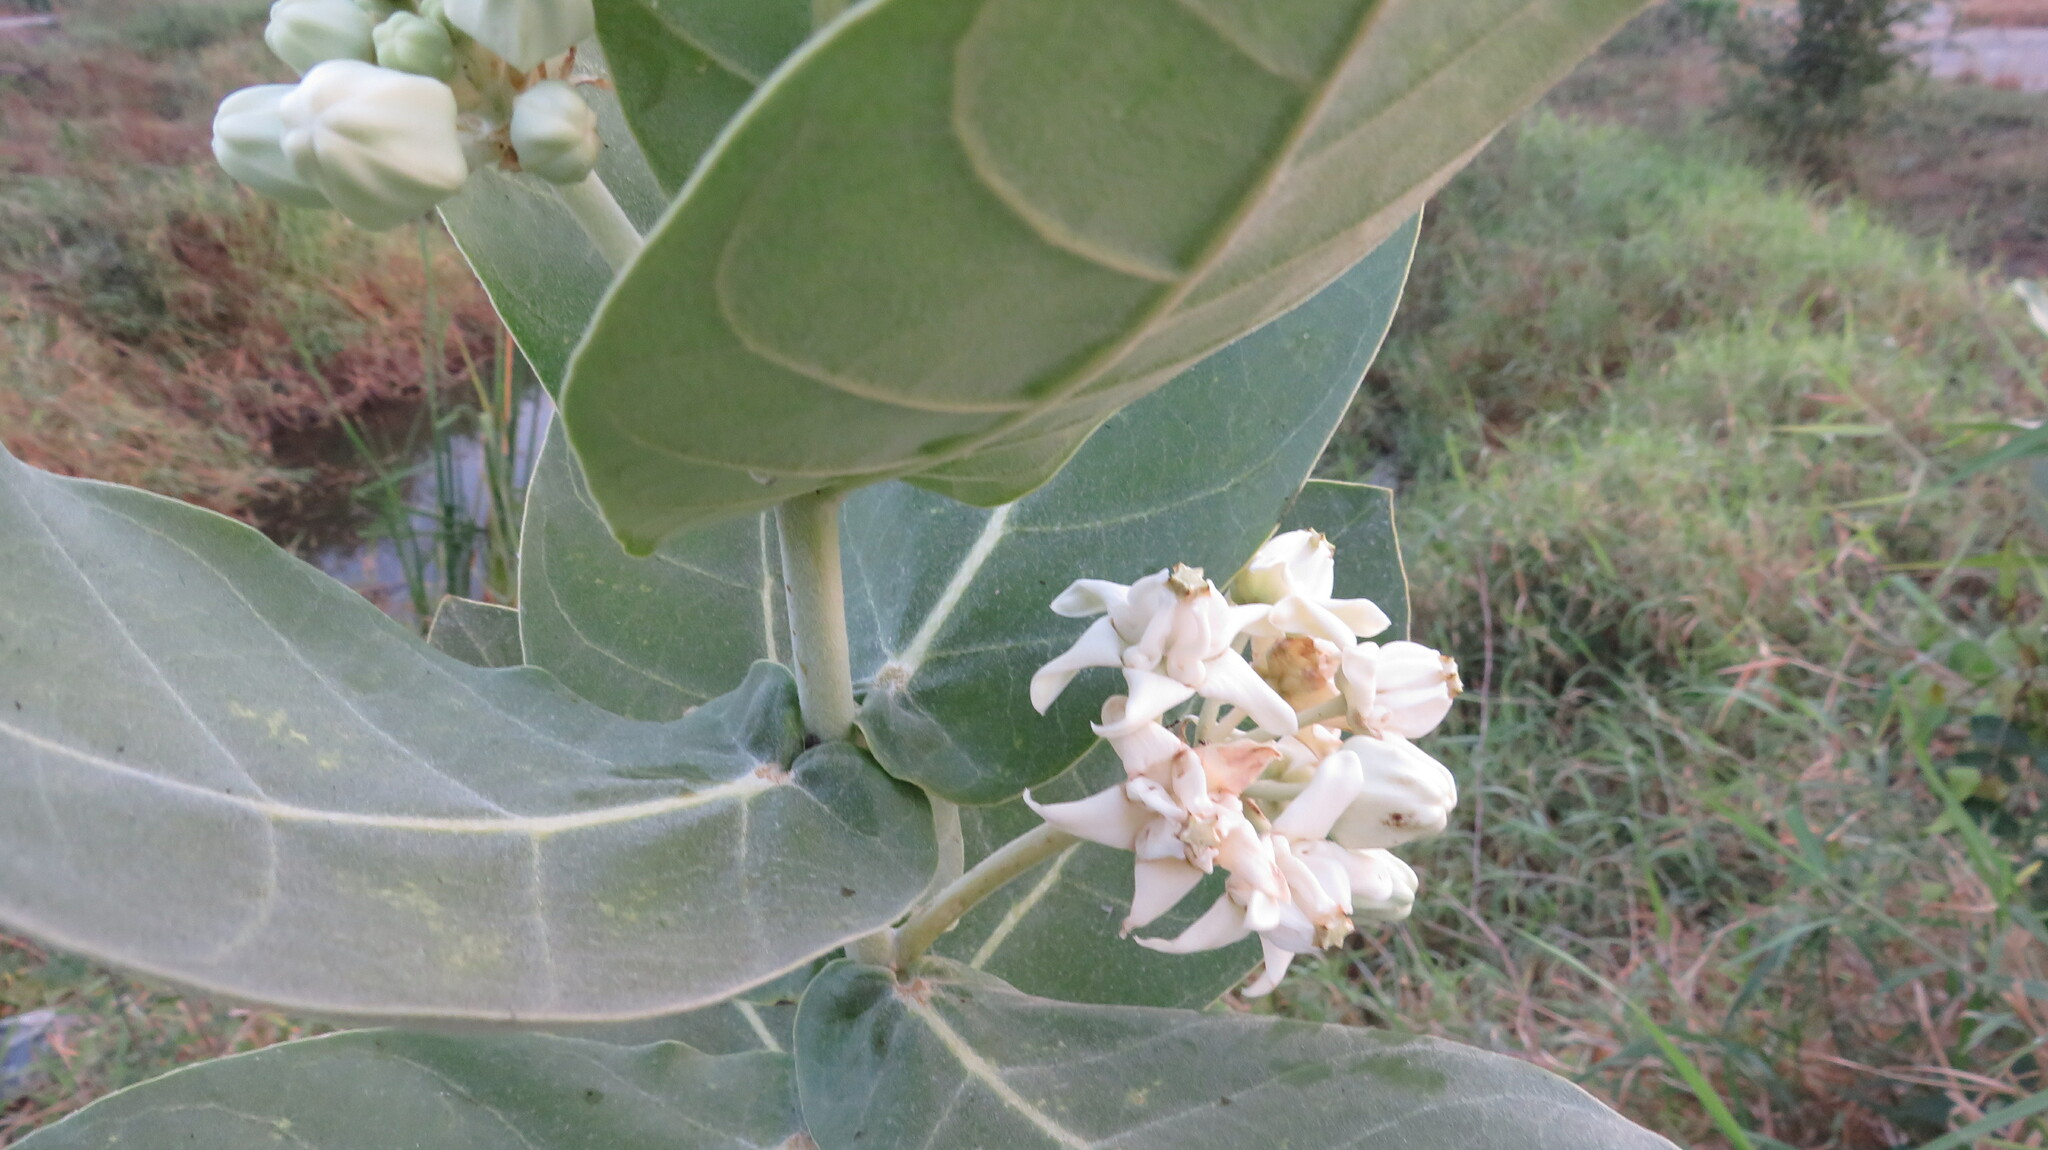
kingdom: Plantae
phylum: Tracheophyta
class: Magnoliopsida
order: Gentianales
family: Apocynaceae
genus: Calotropis
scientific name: Calotropis gigantea
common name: Crown flower
